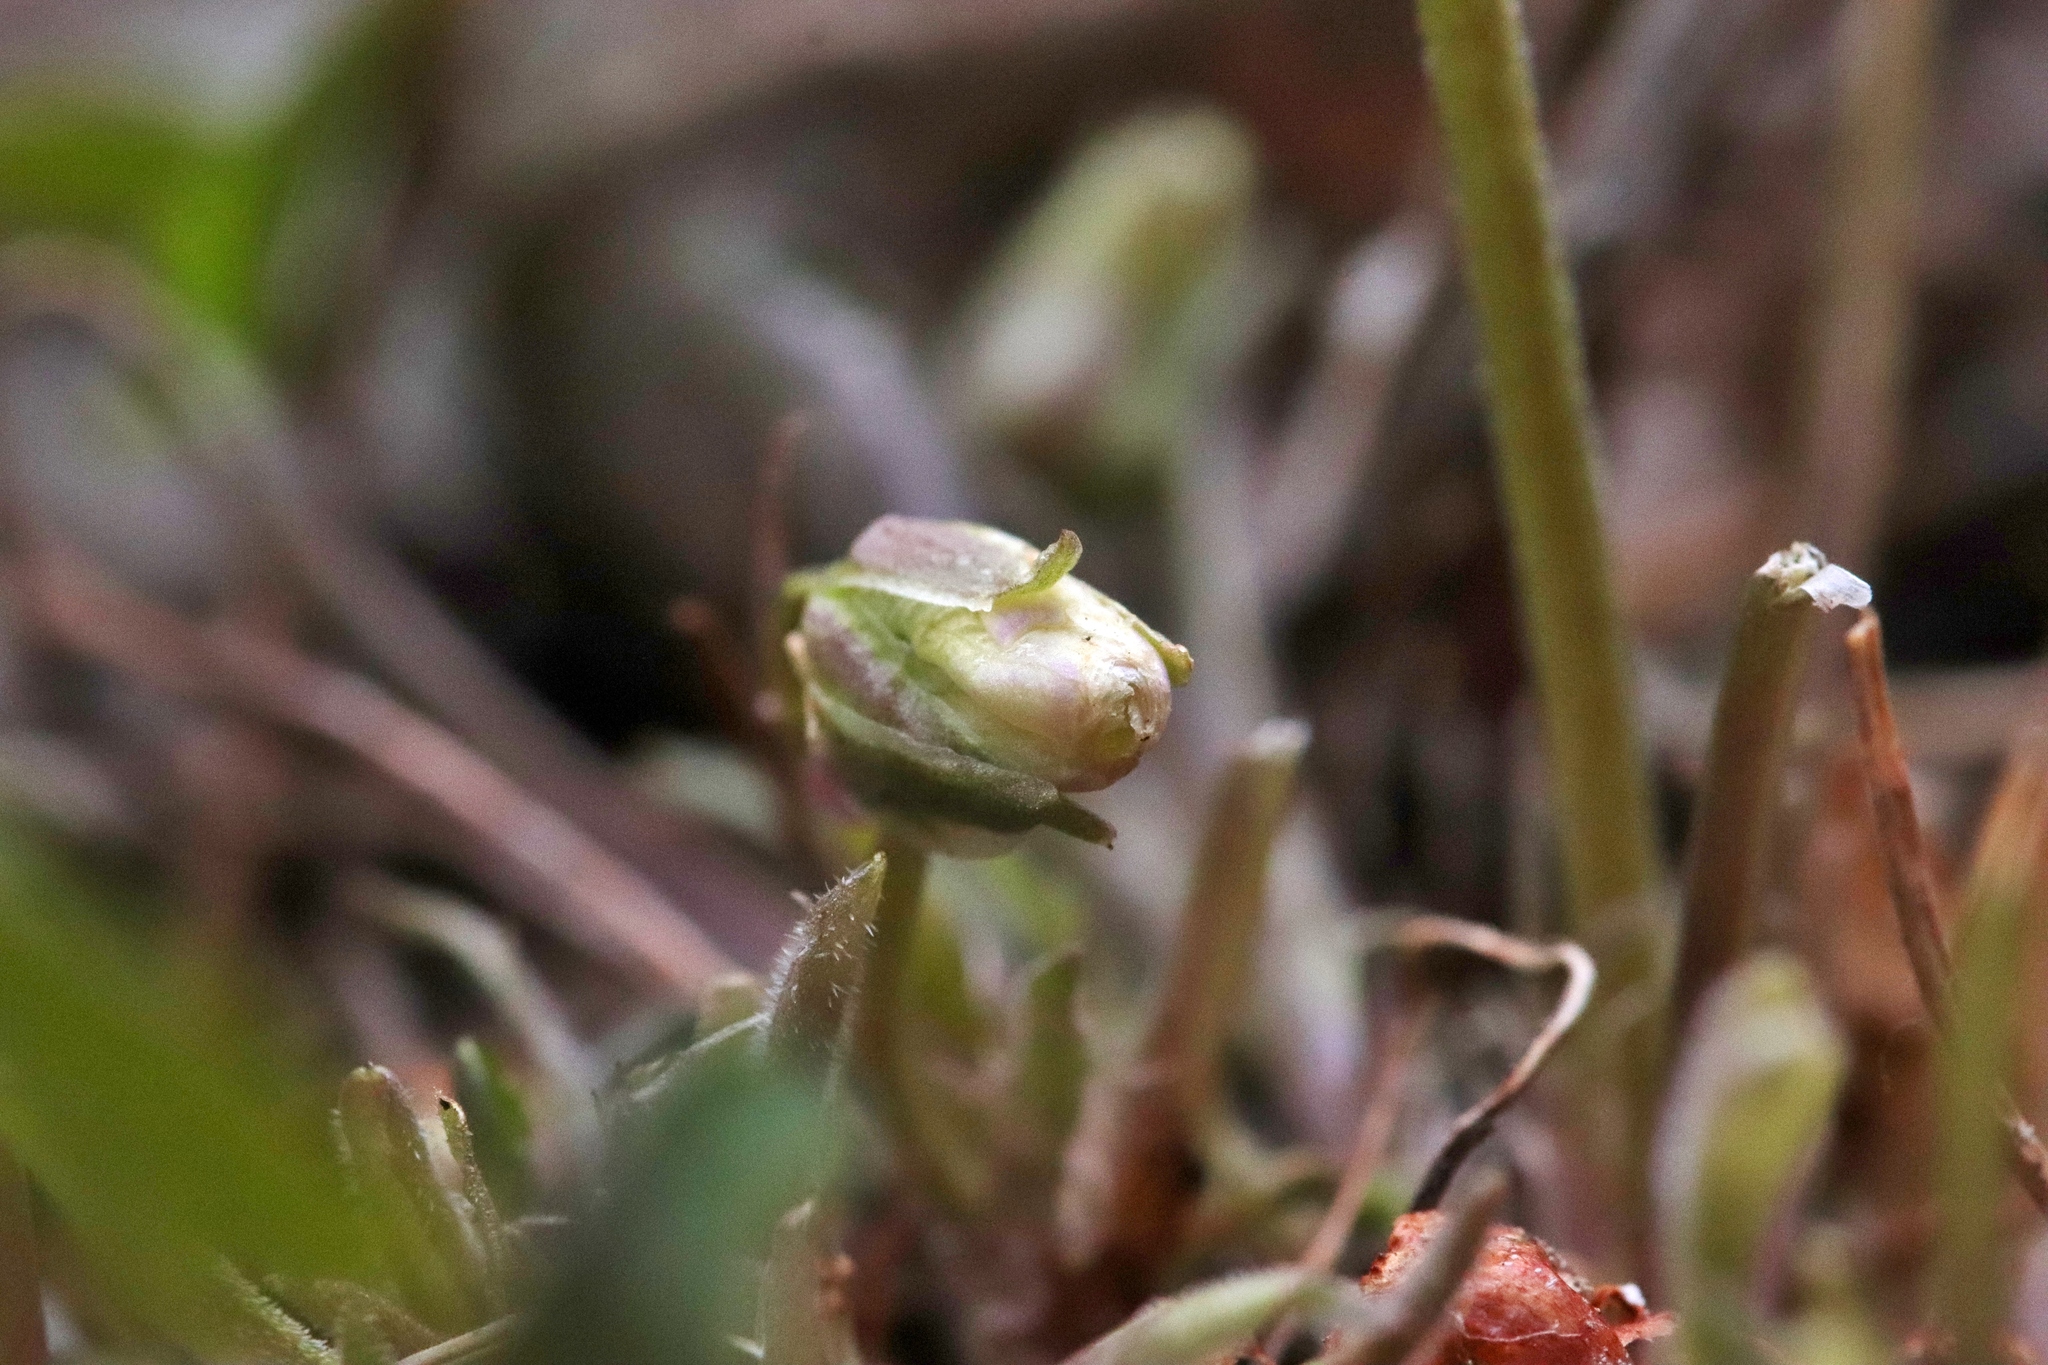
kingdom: Plantae
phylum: Tracheophyta
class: Magnoliopsida
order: Malpighiales
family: Violaceae
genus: Viola
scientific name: Viola adunca
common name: Sand violet
